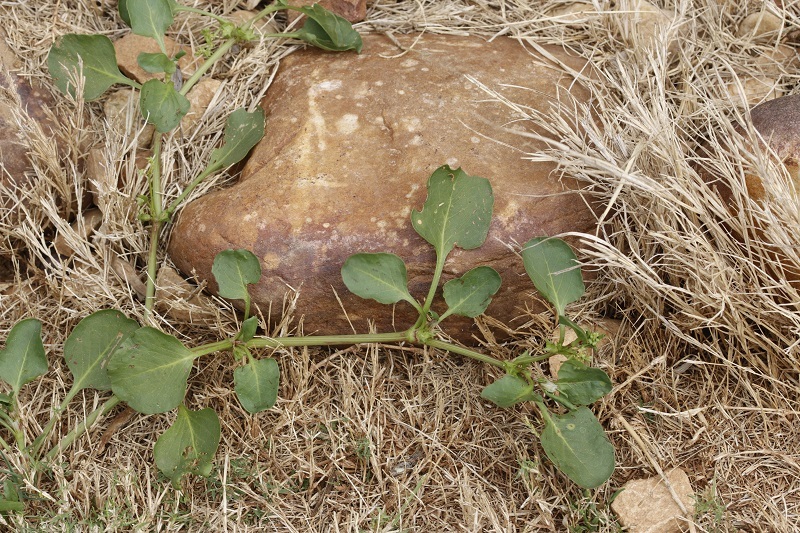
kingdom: Plantae
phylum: Tracheophyta
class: Magnoliopsida
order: Caryophyllales
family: Polygonaceae
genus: Rumex
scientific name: Rumex hypogaeus
